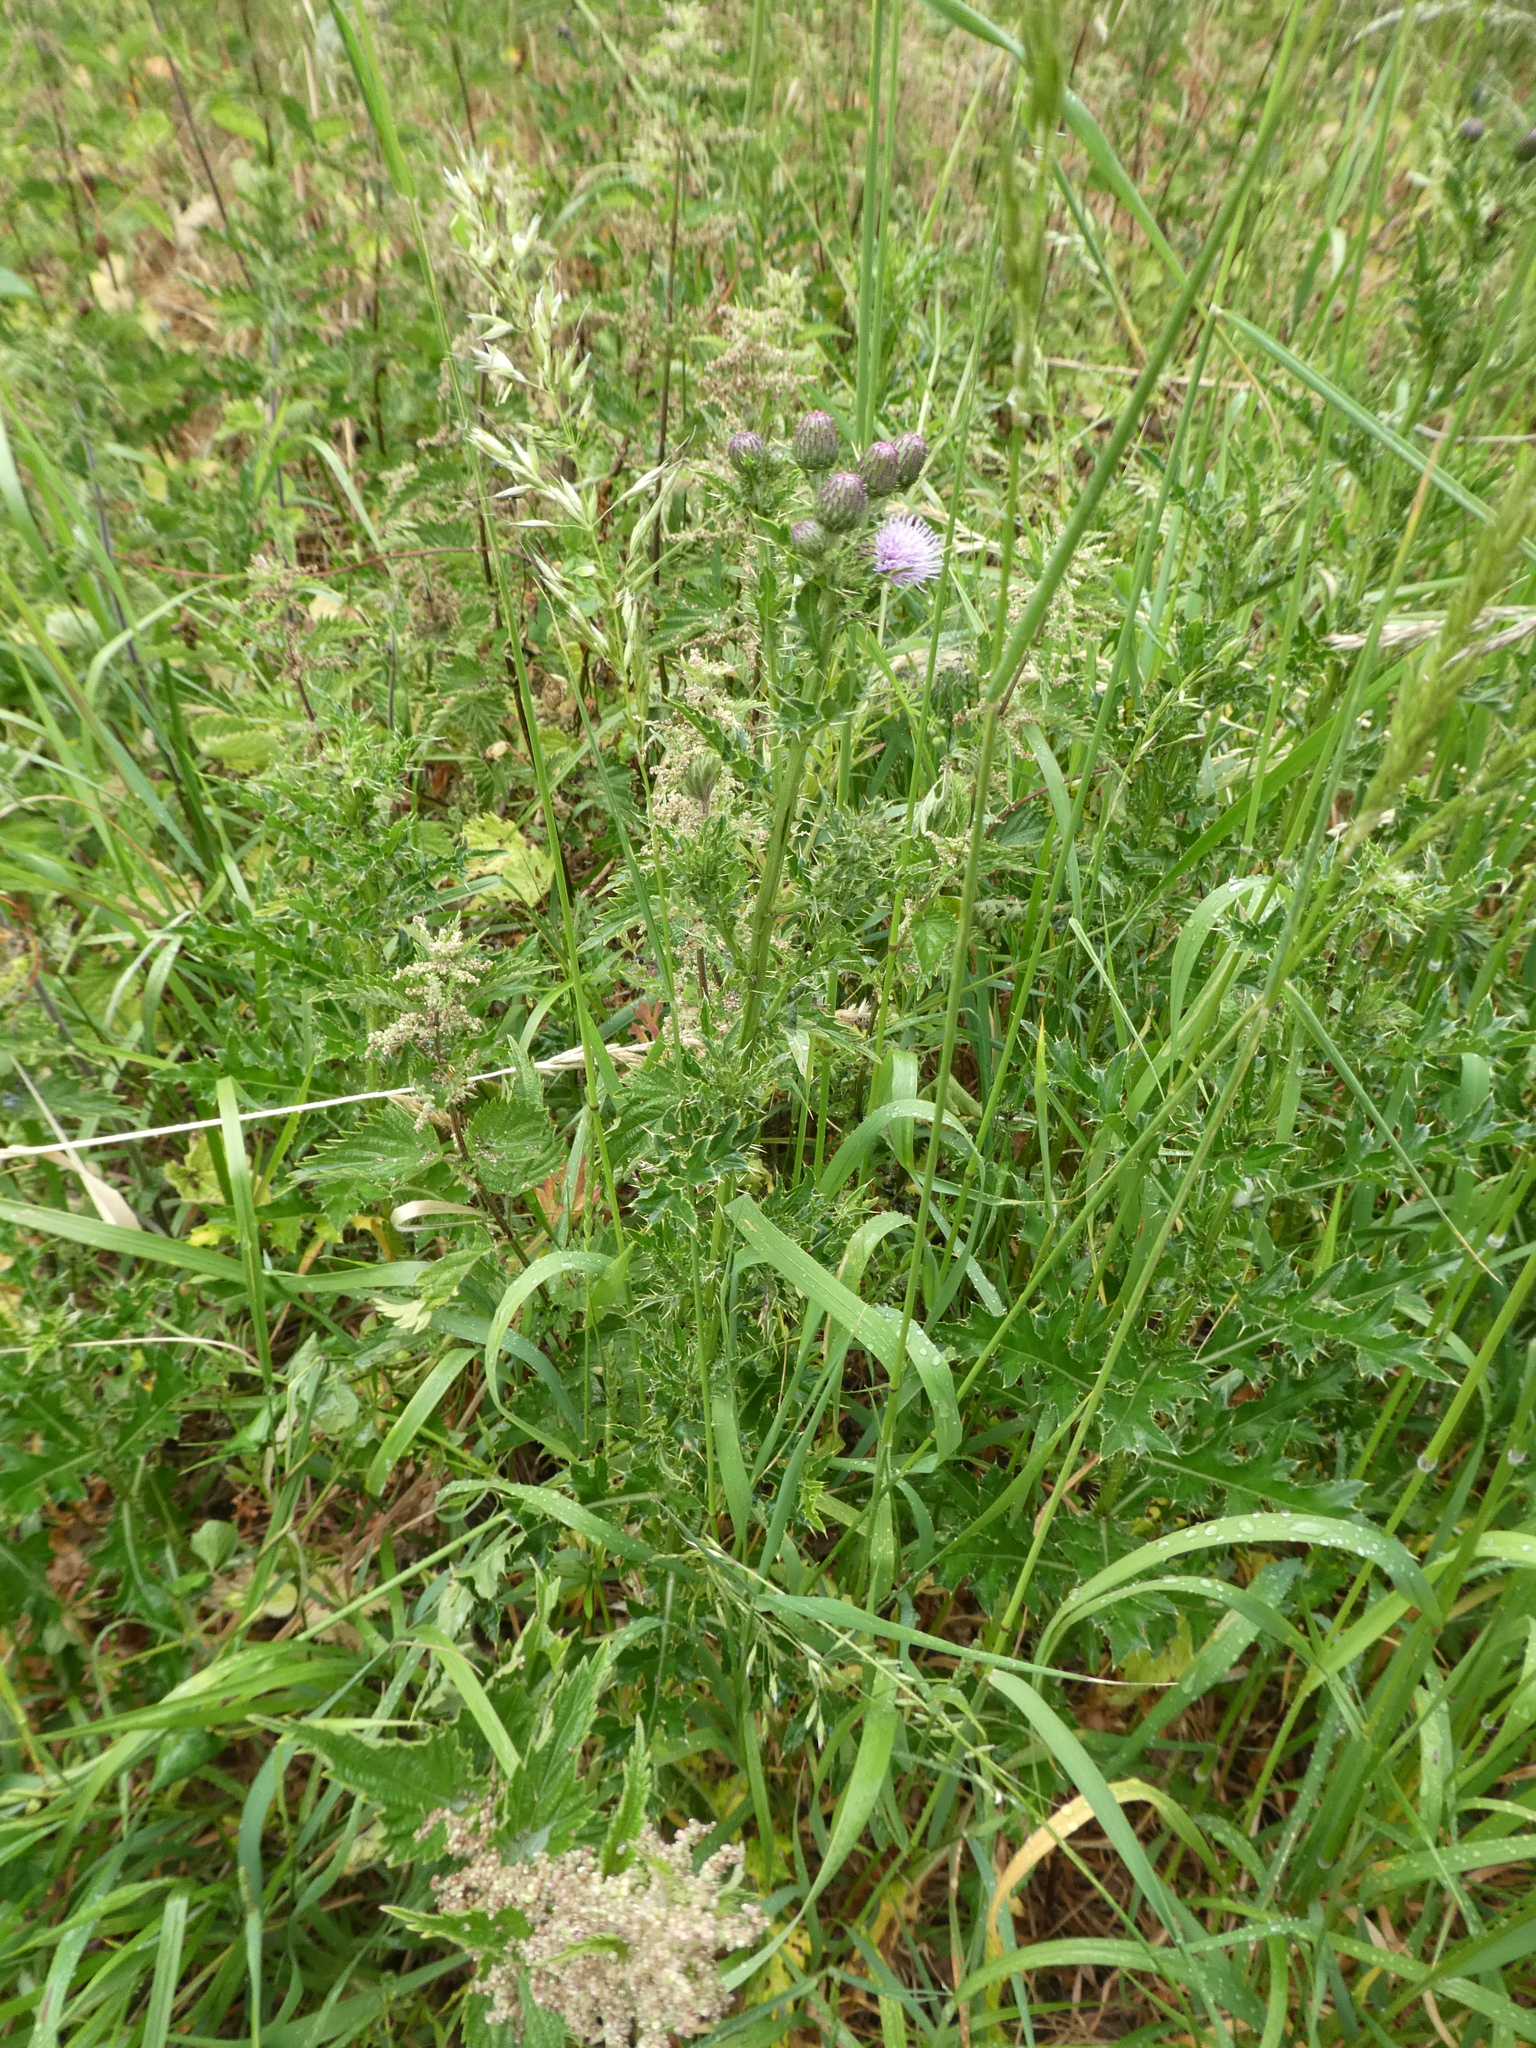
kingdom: Plantae
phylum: Tracheophyta
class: Magnoliopsida
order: Asterales
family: Asteraceae
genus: Cirsium
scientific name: Cirsium arvense
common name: Creeping thistle
